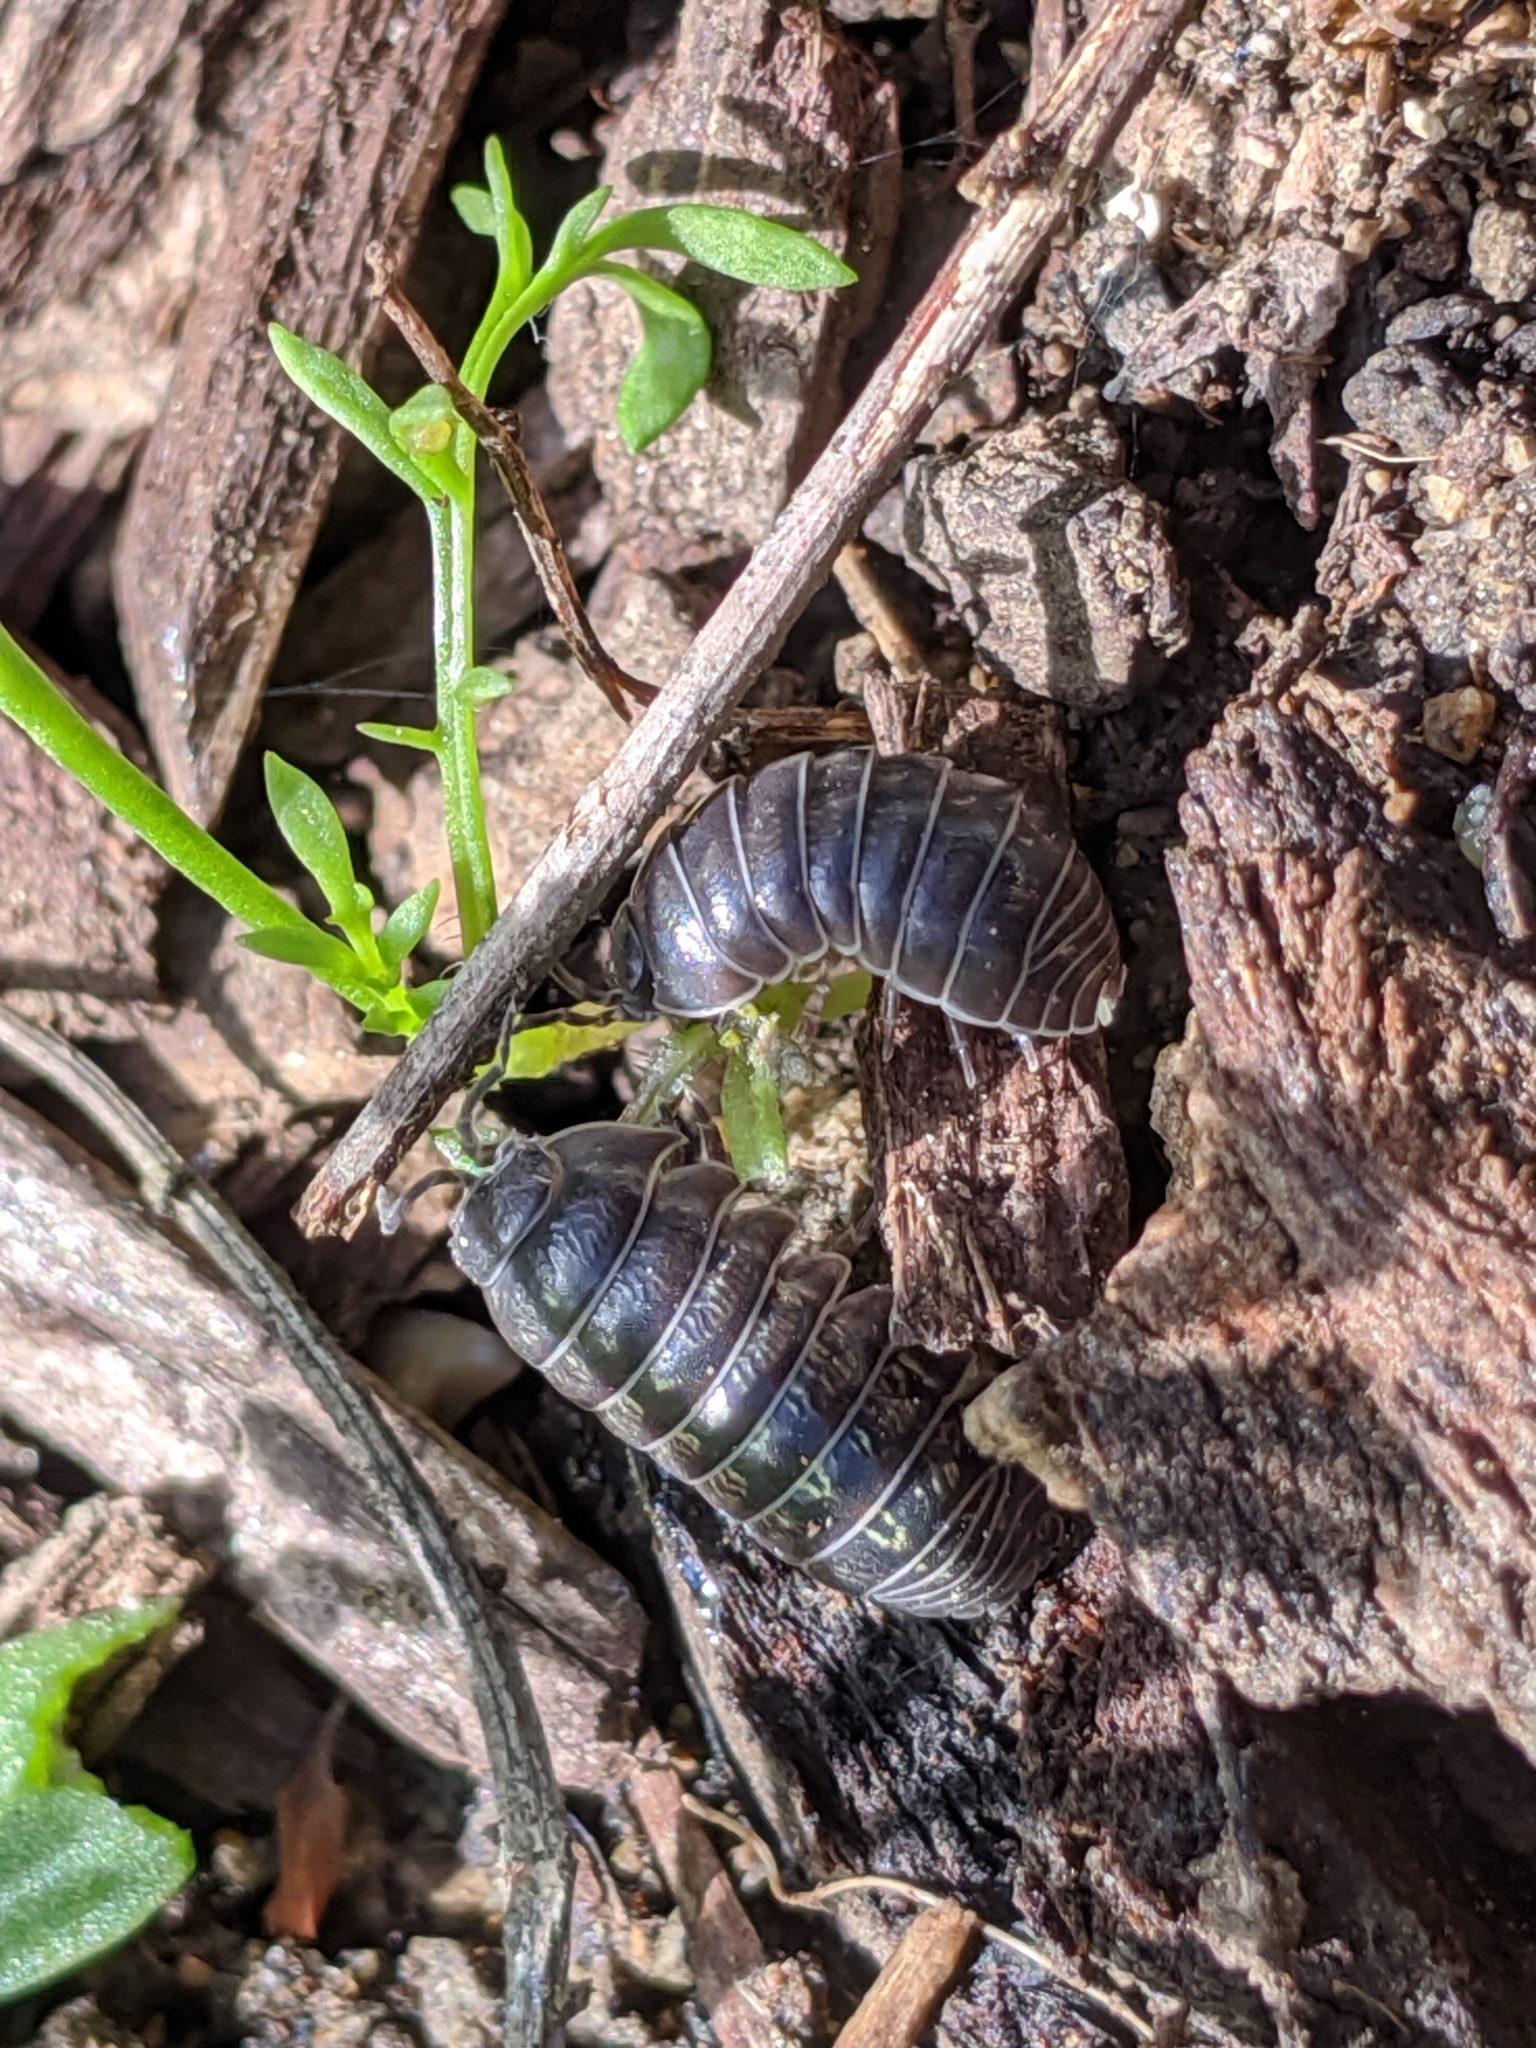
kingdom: Animalia
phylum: Arthropoda
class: Malacostraca
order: Isopoda
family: Armadillidiidae
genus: Armadillidium
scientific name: Armadillidium vulgare
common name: Common pill woodlouse
